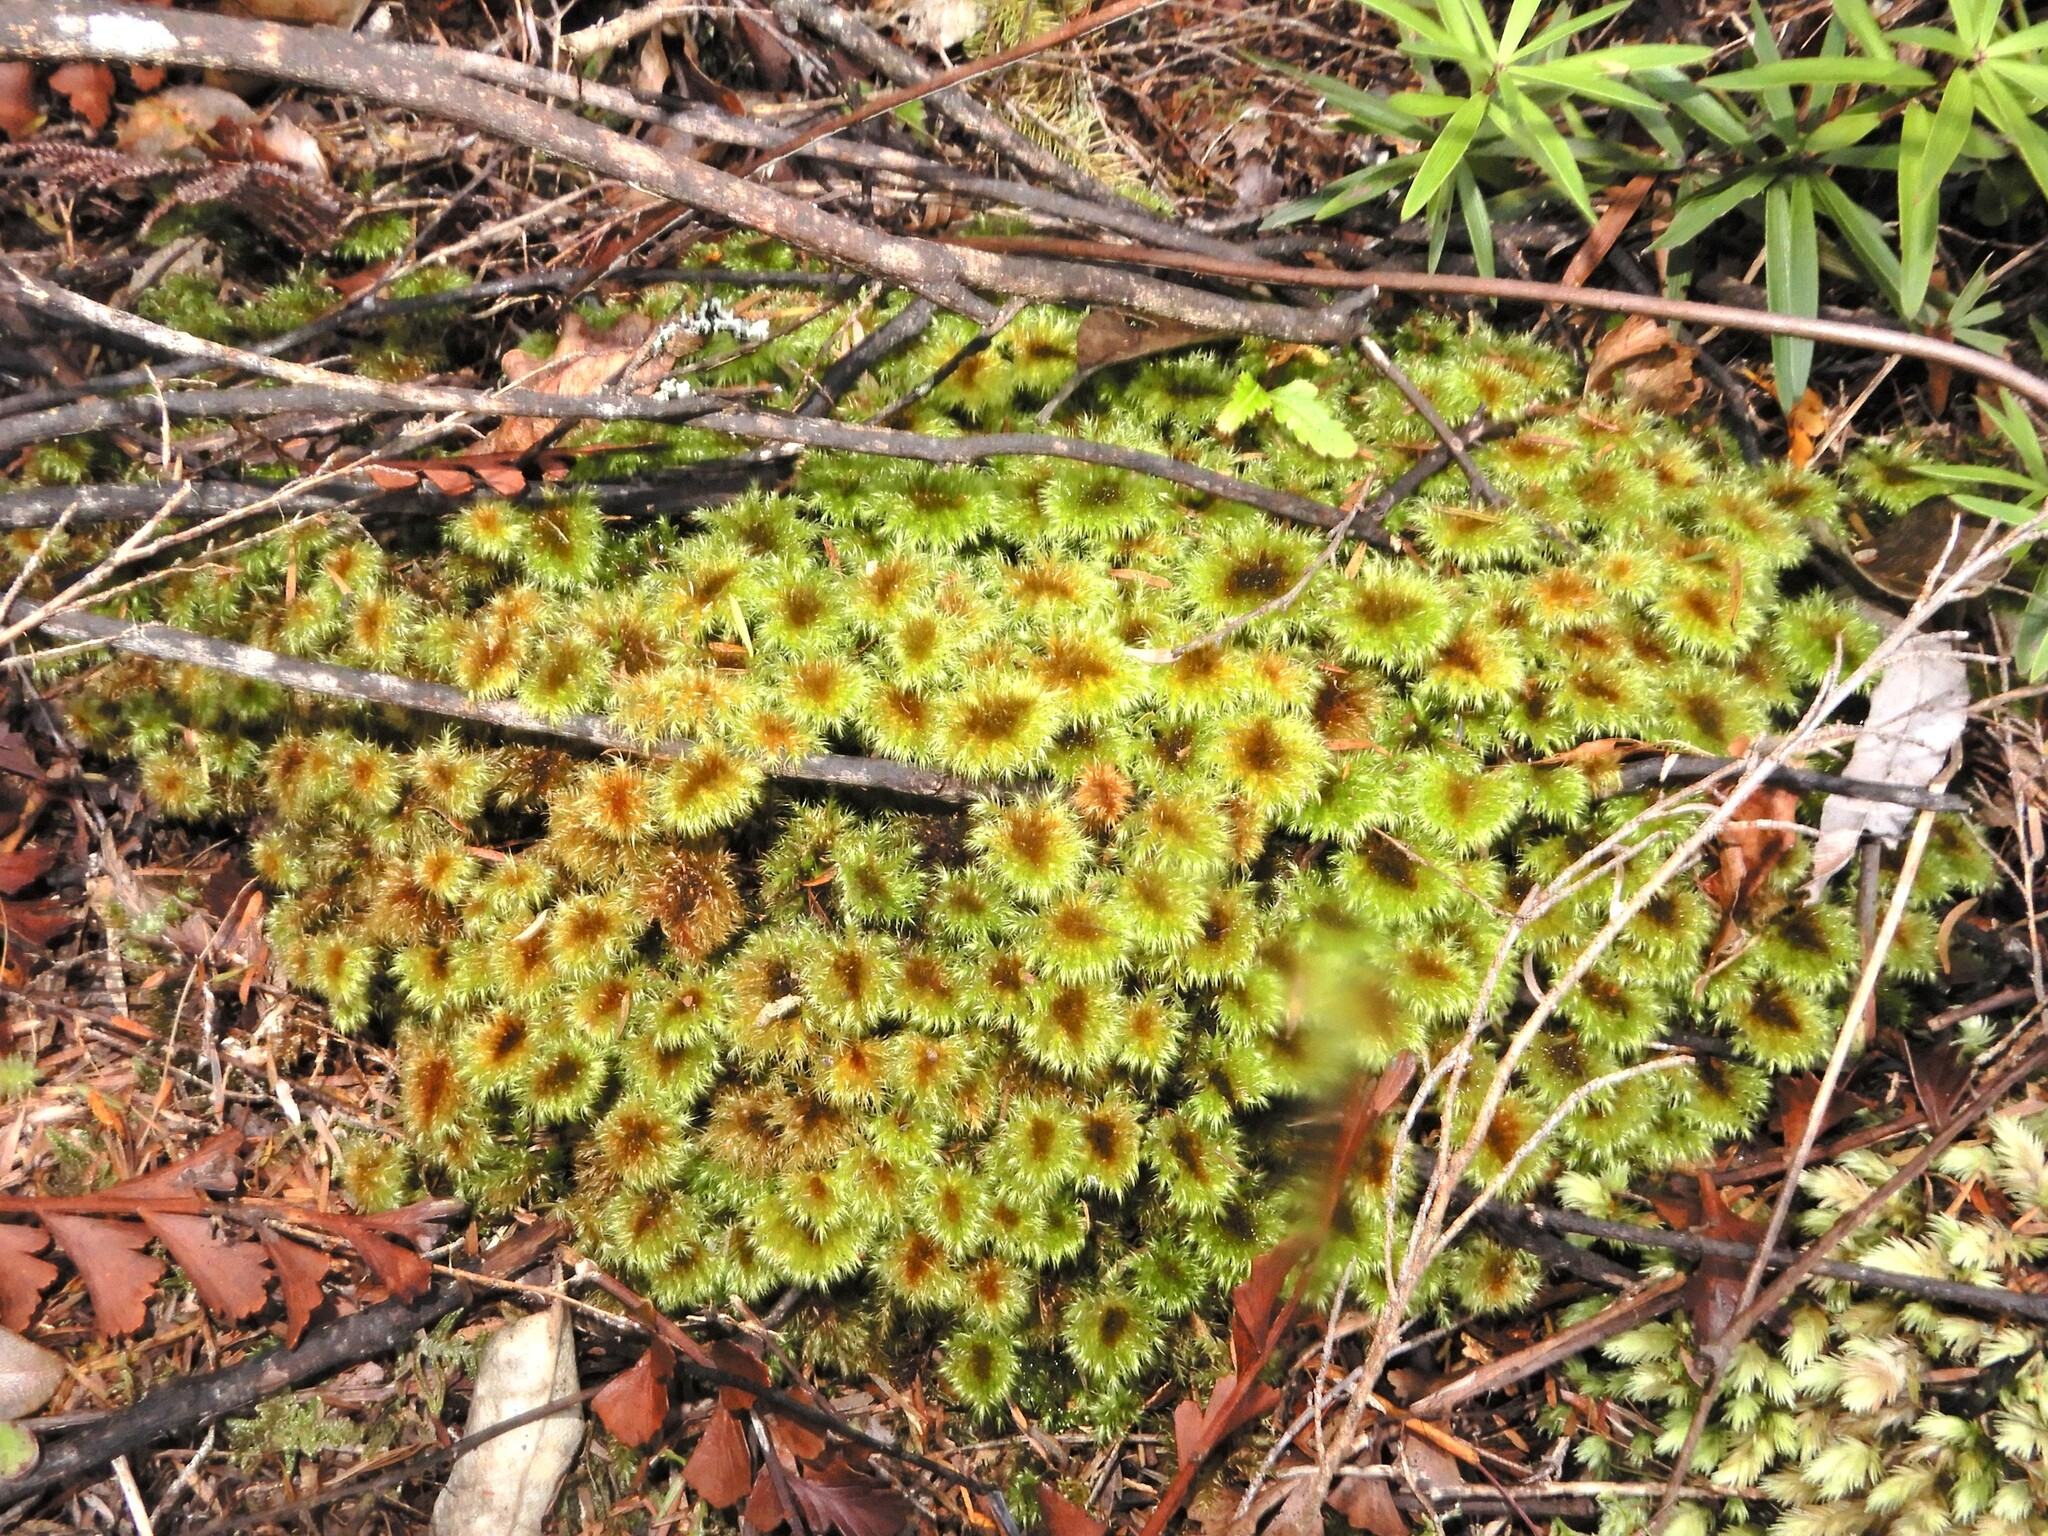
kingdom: Plantae
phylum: Bryophyta
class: Bryopsida
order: Hypnodendrales
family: Spiridentaceae
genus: Mniodendron
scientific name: Mniodendron colensoi
